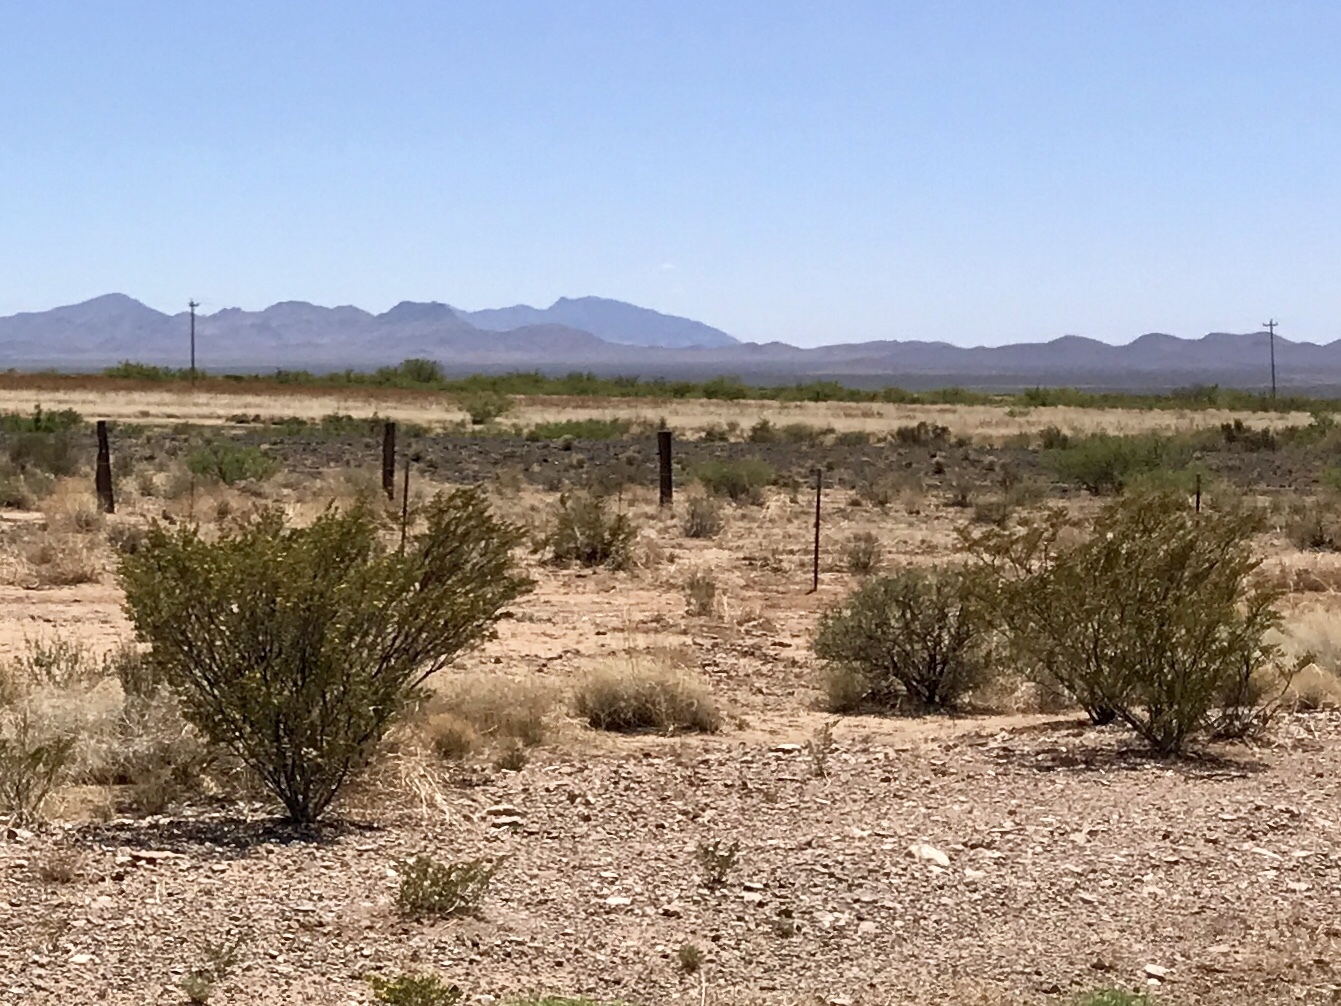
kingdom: Plantae
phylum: Tracheophyta
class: Magnoliopsida
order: Zygophyllales
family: Zygophyllaceae
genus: Larrea
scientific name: Larrea tridentata
